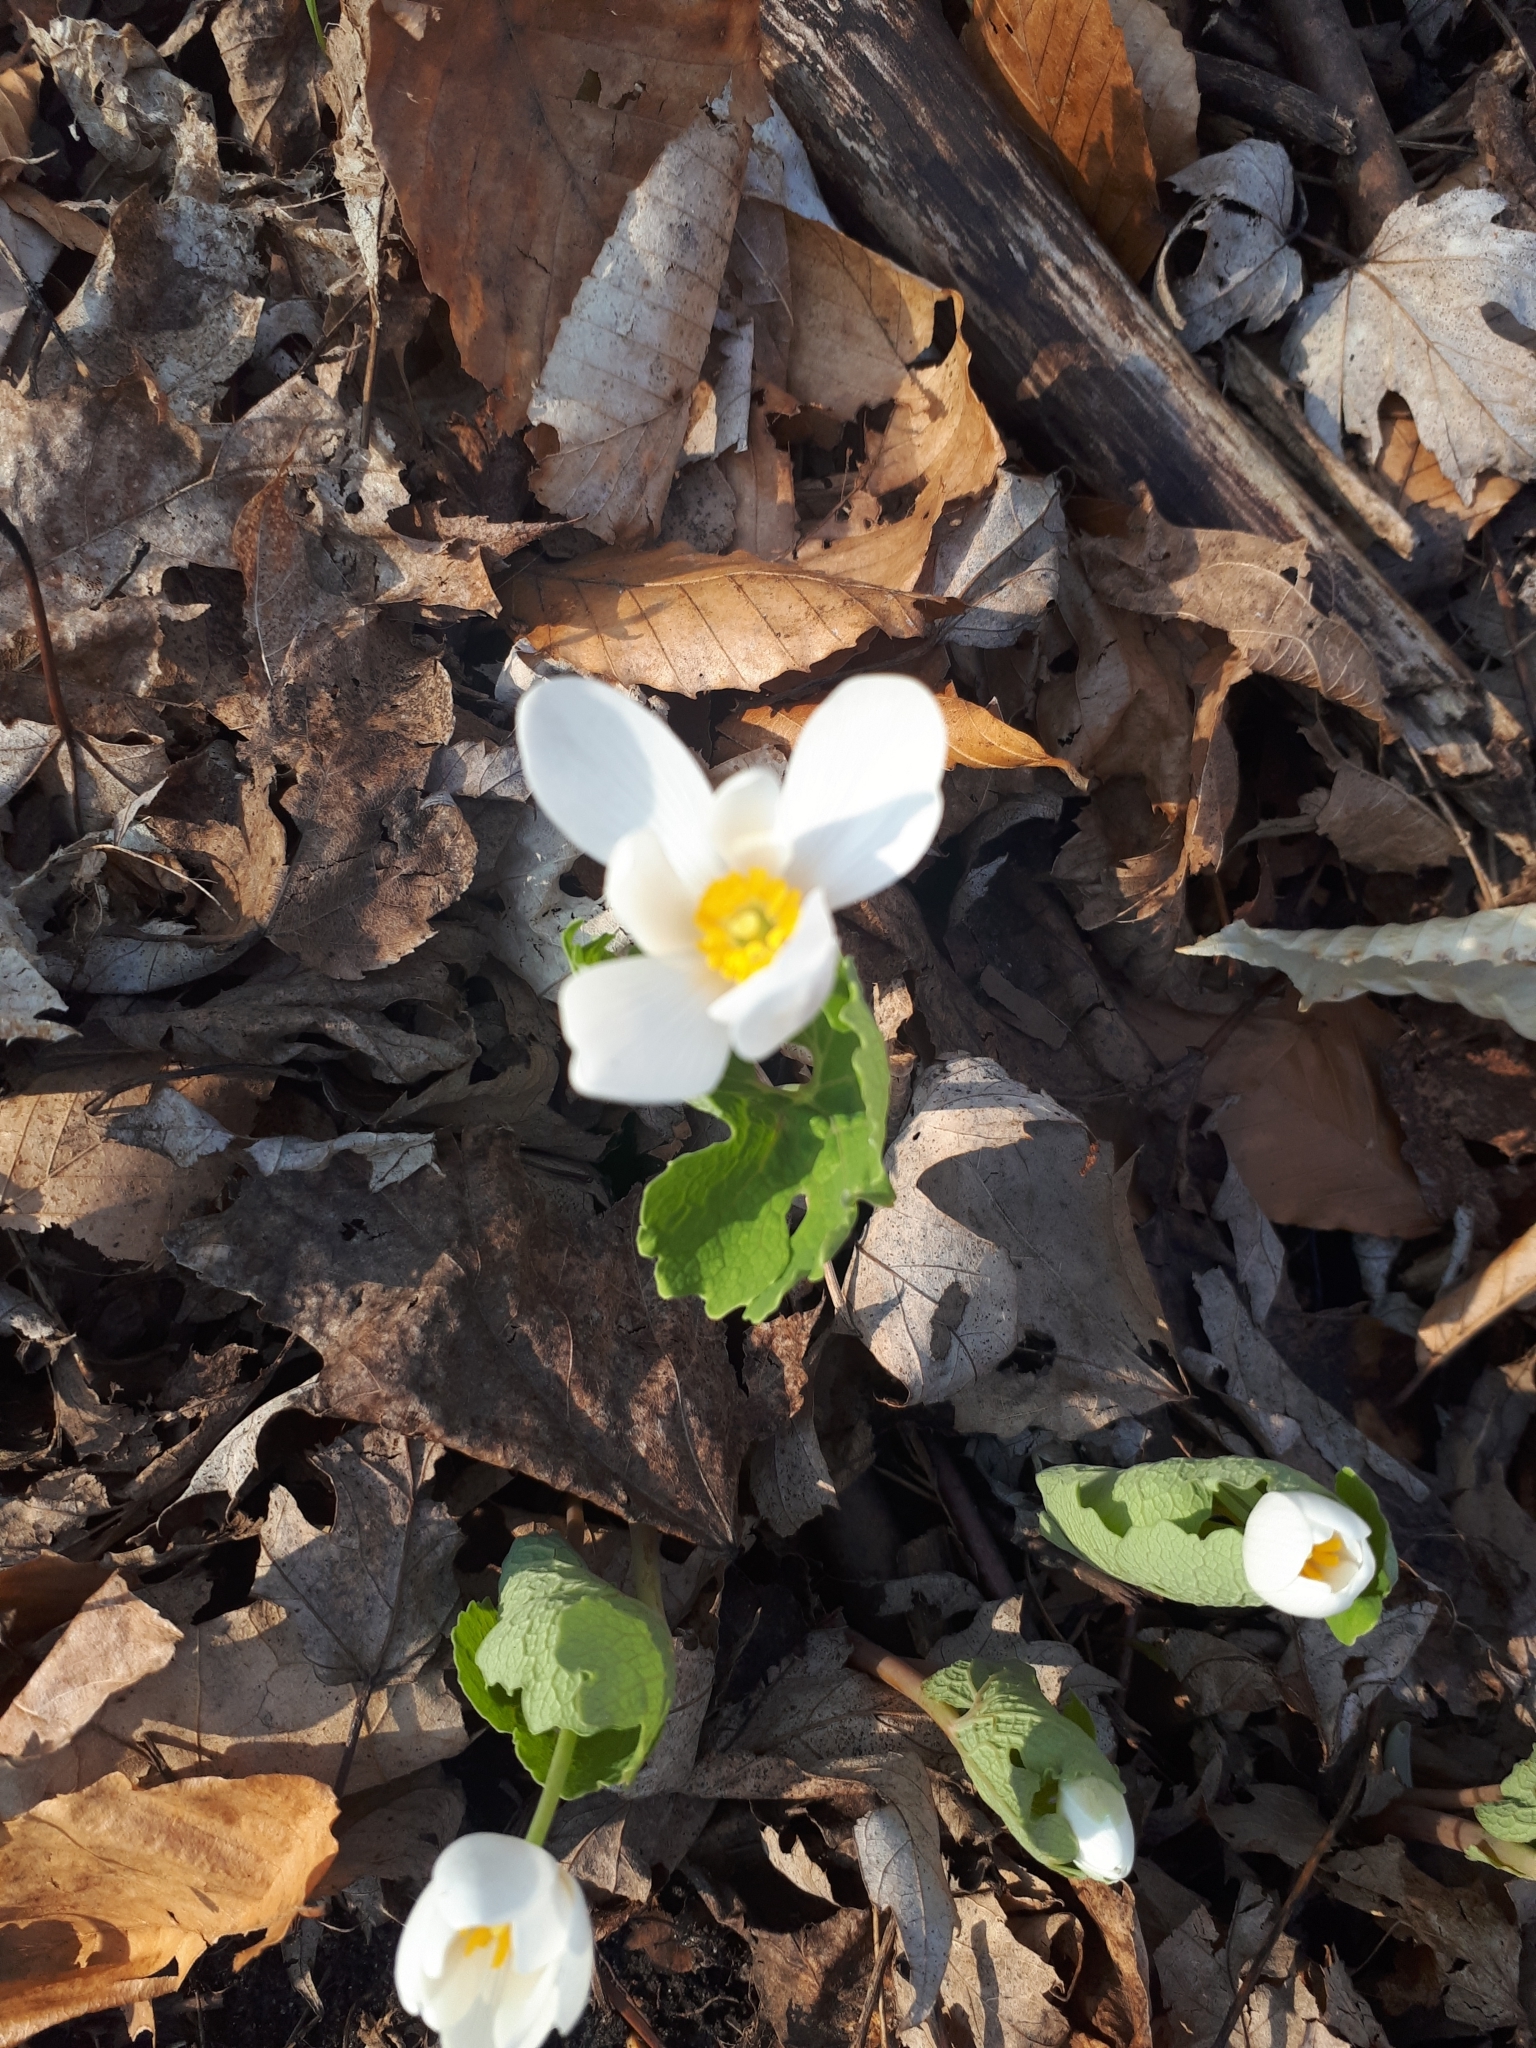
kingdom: Plantae
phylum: Tracheophyta
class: Magnoliopsida
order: Ranunculales
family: Papaveraceae
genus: Sanguinaria
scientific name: Sanguinaria canadensis
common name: Bloodroot
